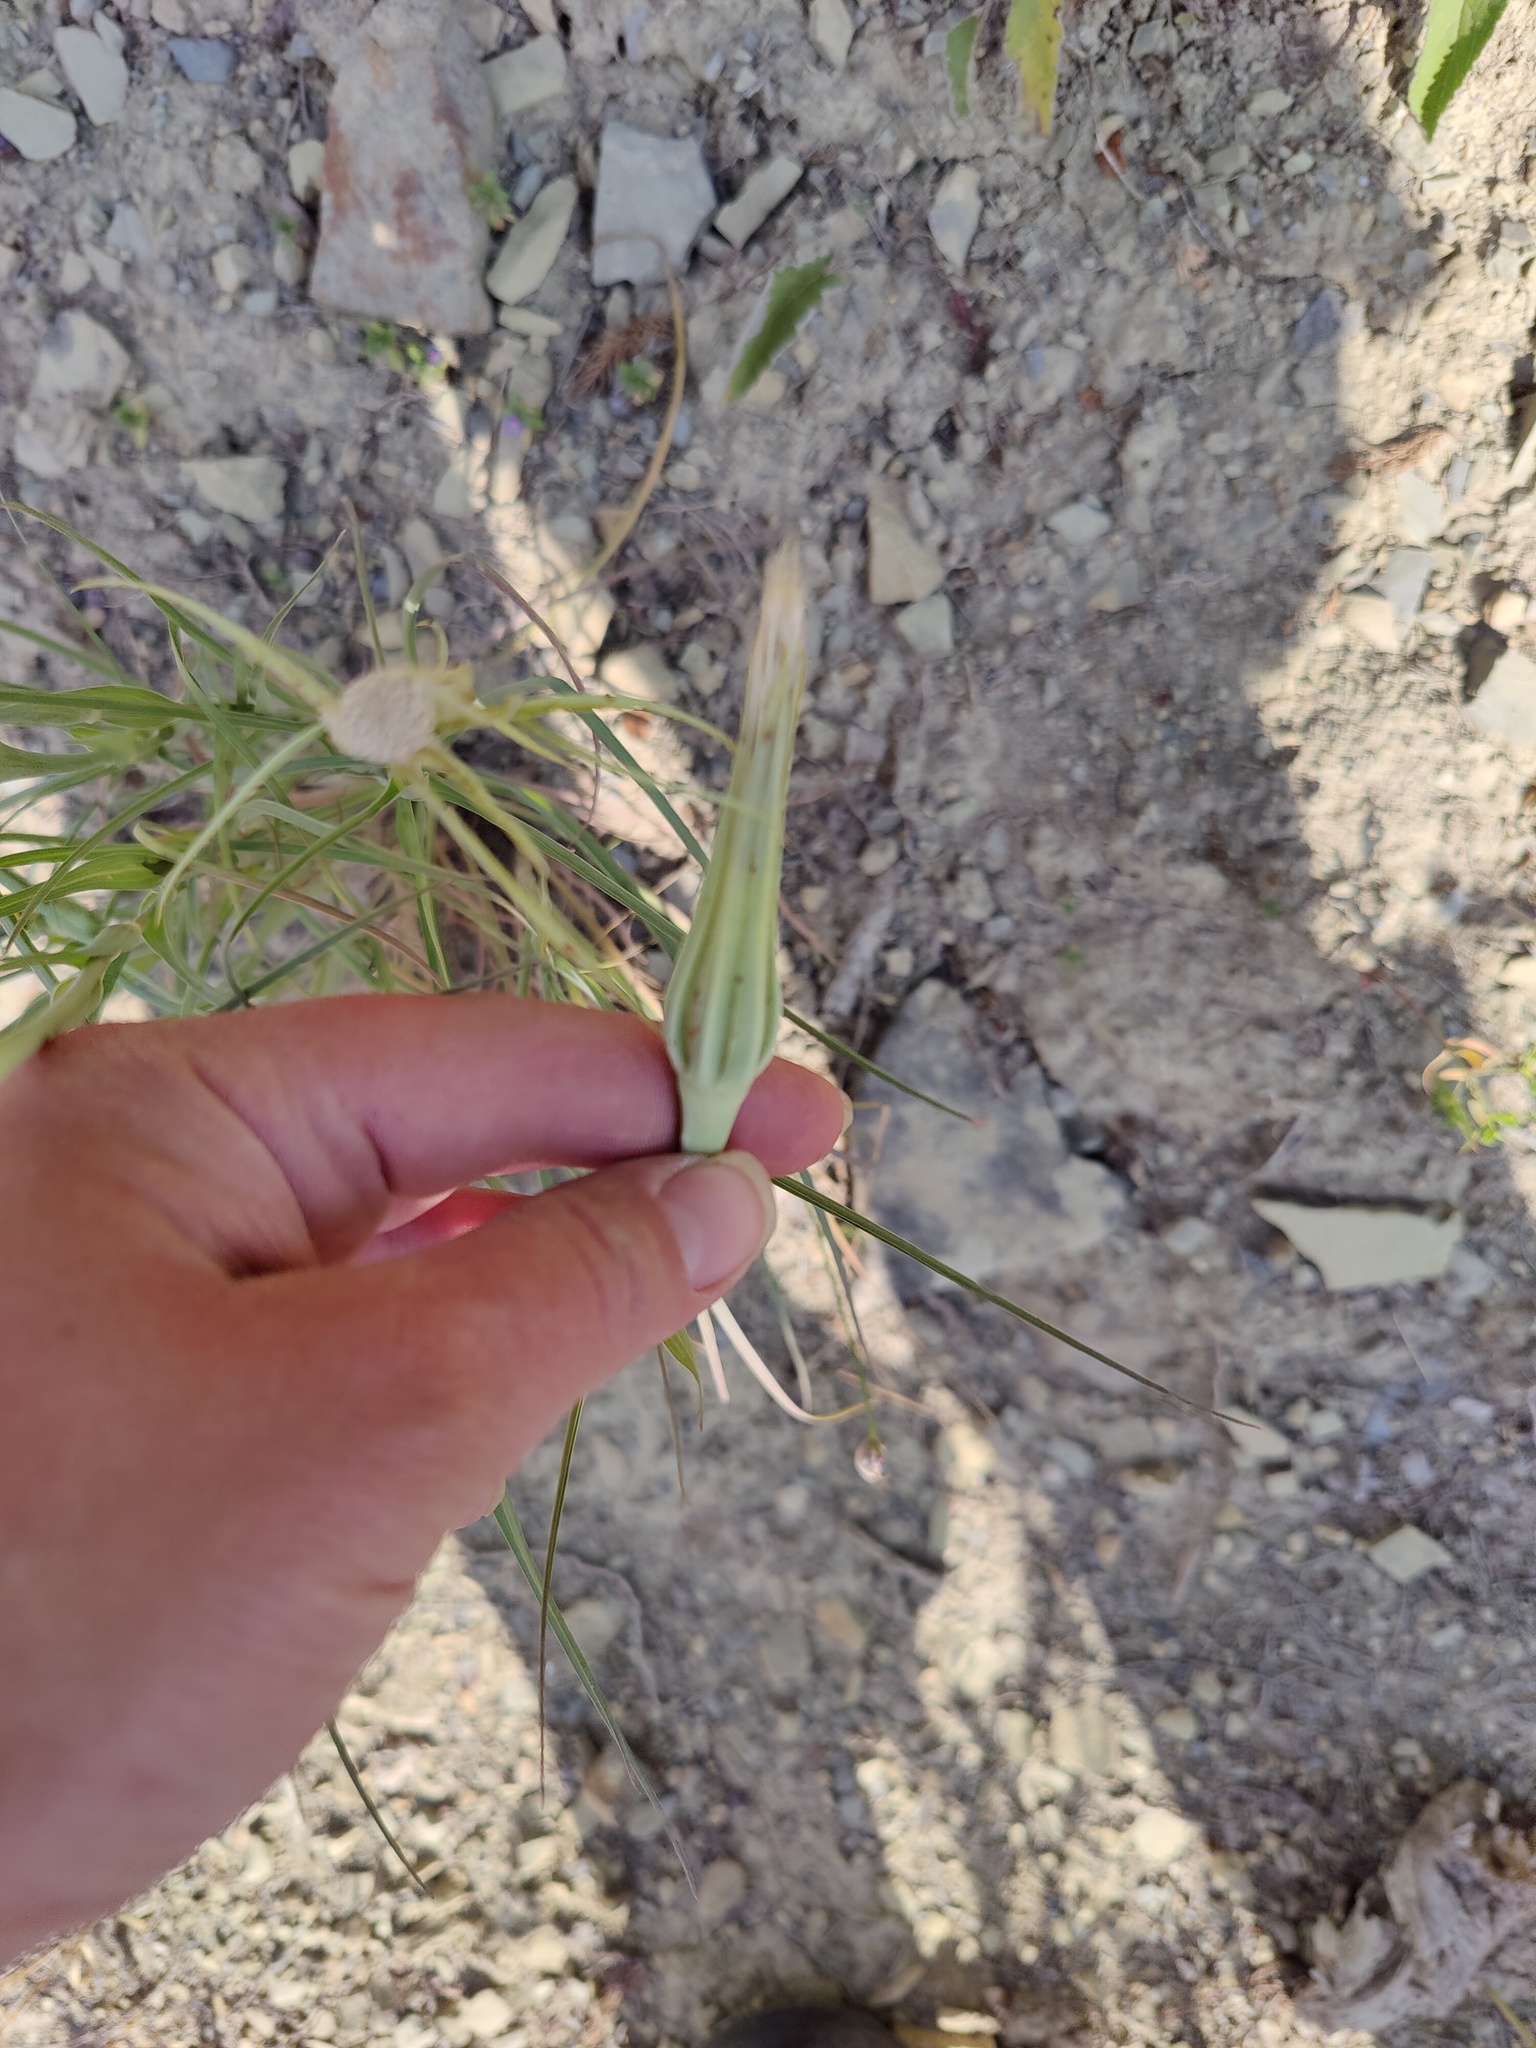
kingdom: Plantae
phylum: Tracheophyta
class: Magnoliopsida
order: Asterales
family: Asteraceae
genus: Tragopogon
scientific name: Tragopogon dubius
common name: Yellow salsify
